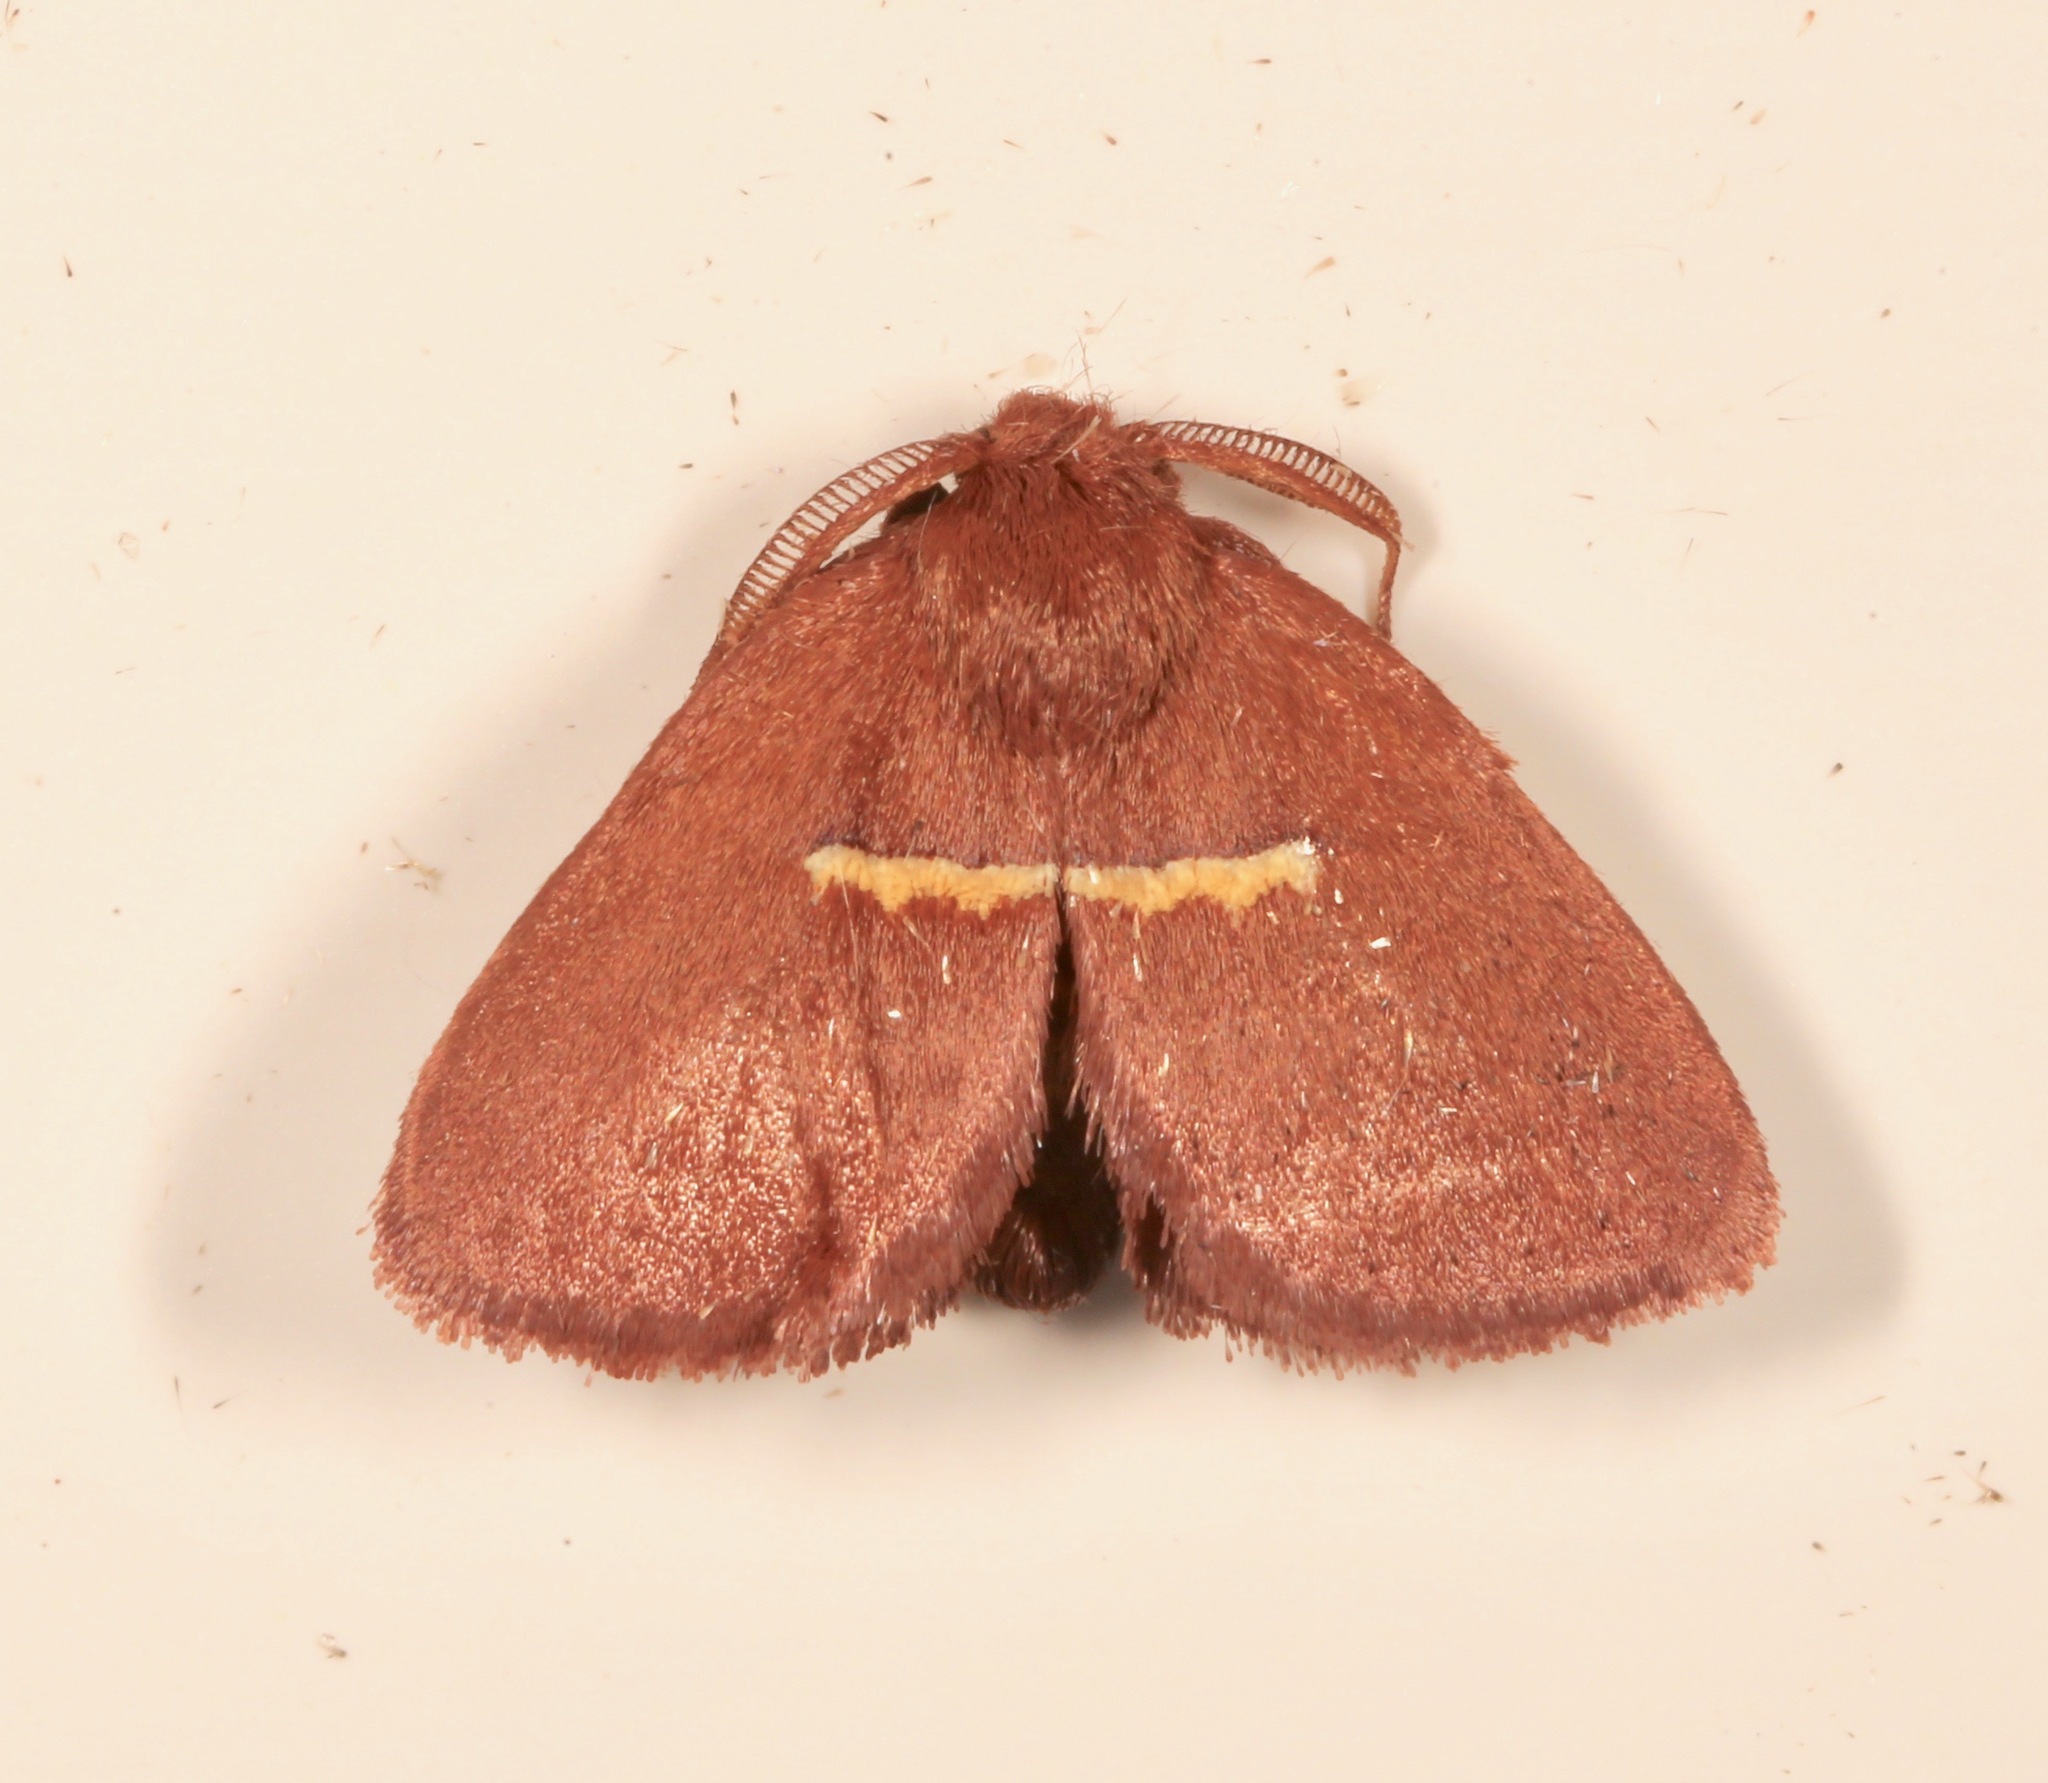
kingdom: Animalia
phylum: Arthropoda
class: Insecta
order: Lepidoptera
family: Limacodidae
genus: Monoleuca
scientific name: Monoleuca semifascia
